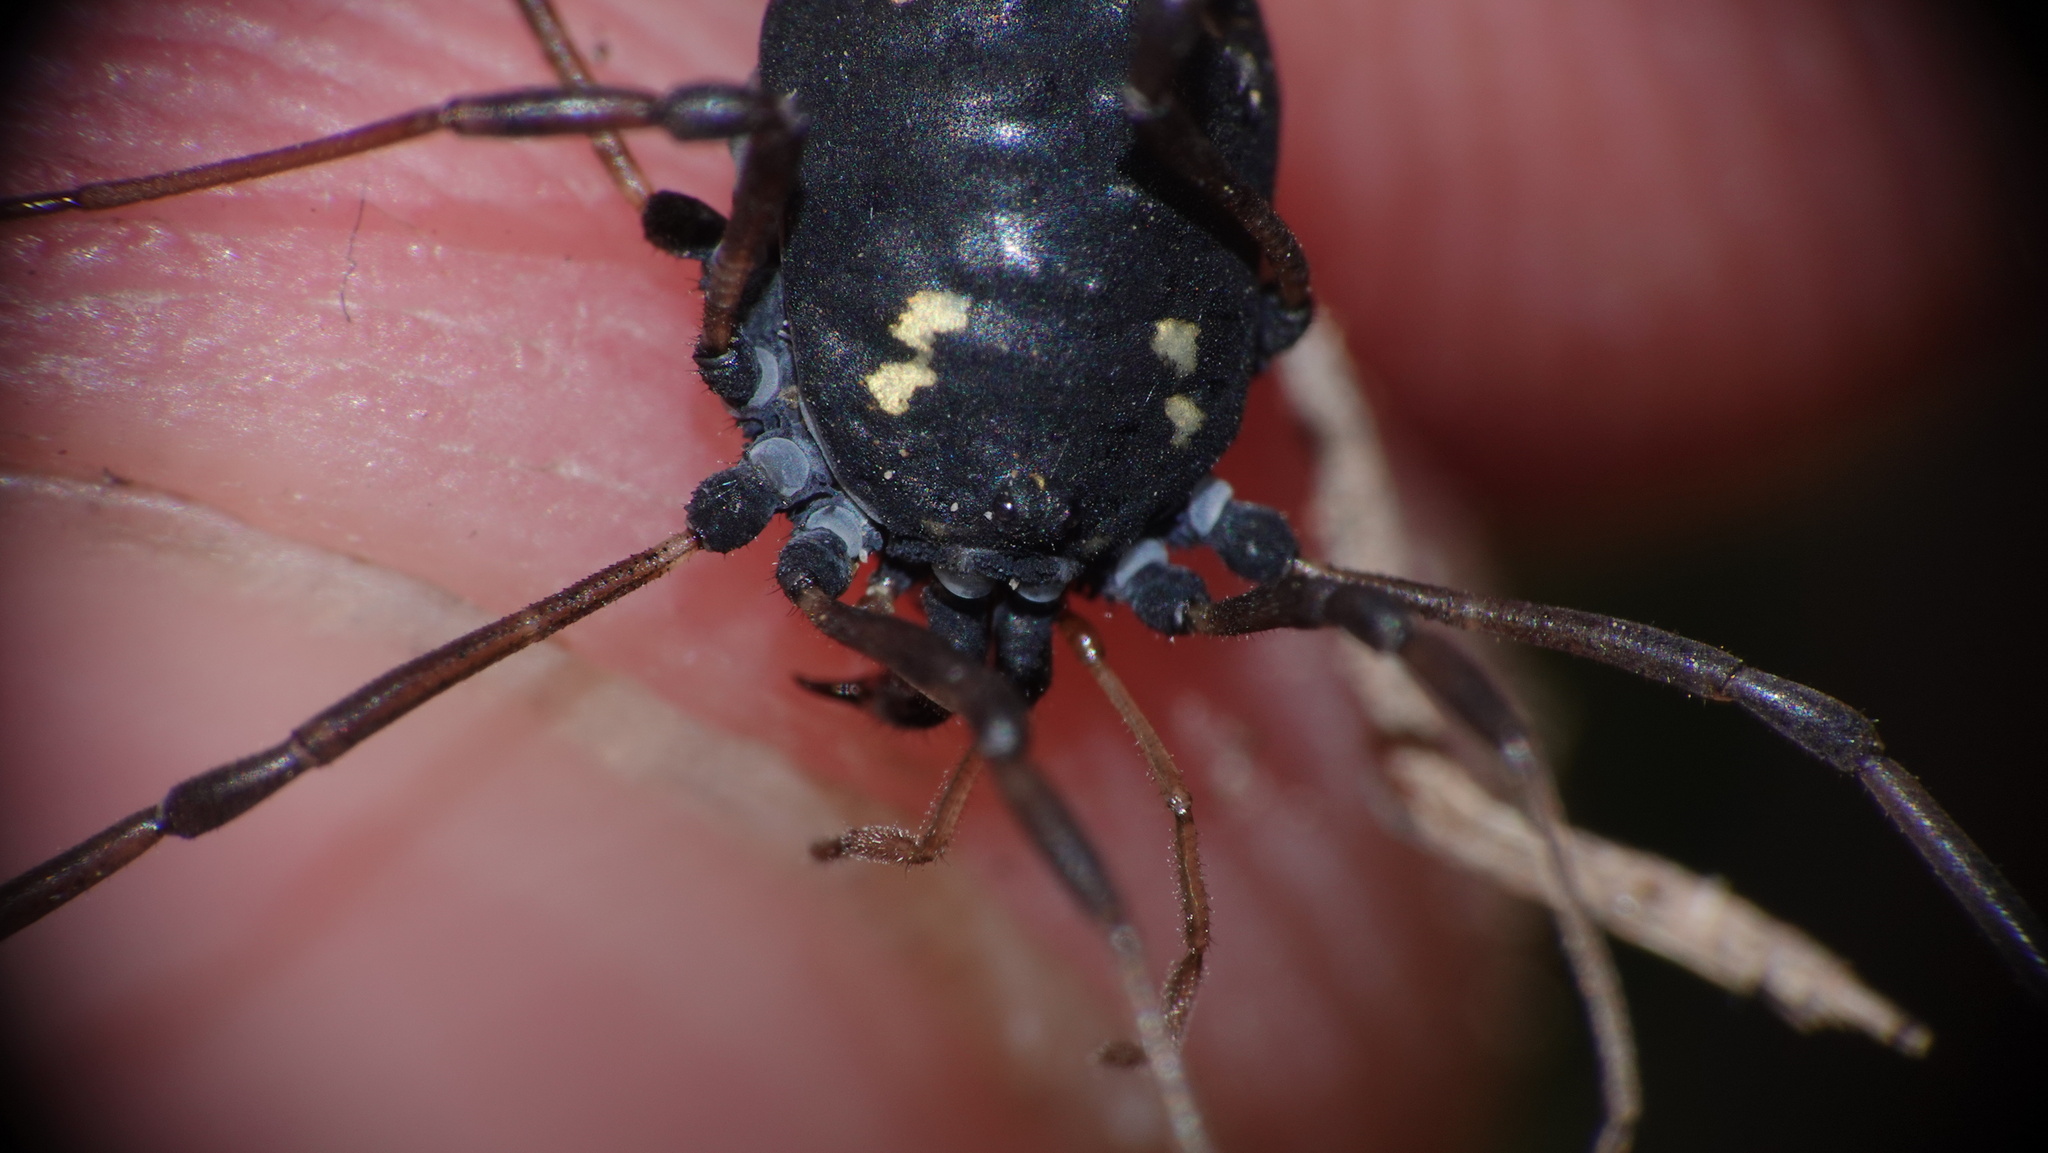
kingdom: Animalia
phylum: Arthropoda
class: Arachnida
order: Opiliones
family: Nemastomatidae
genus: Paranemastoma
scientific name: Paranemastoma quadripunctatum
